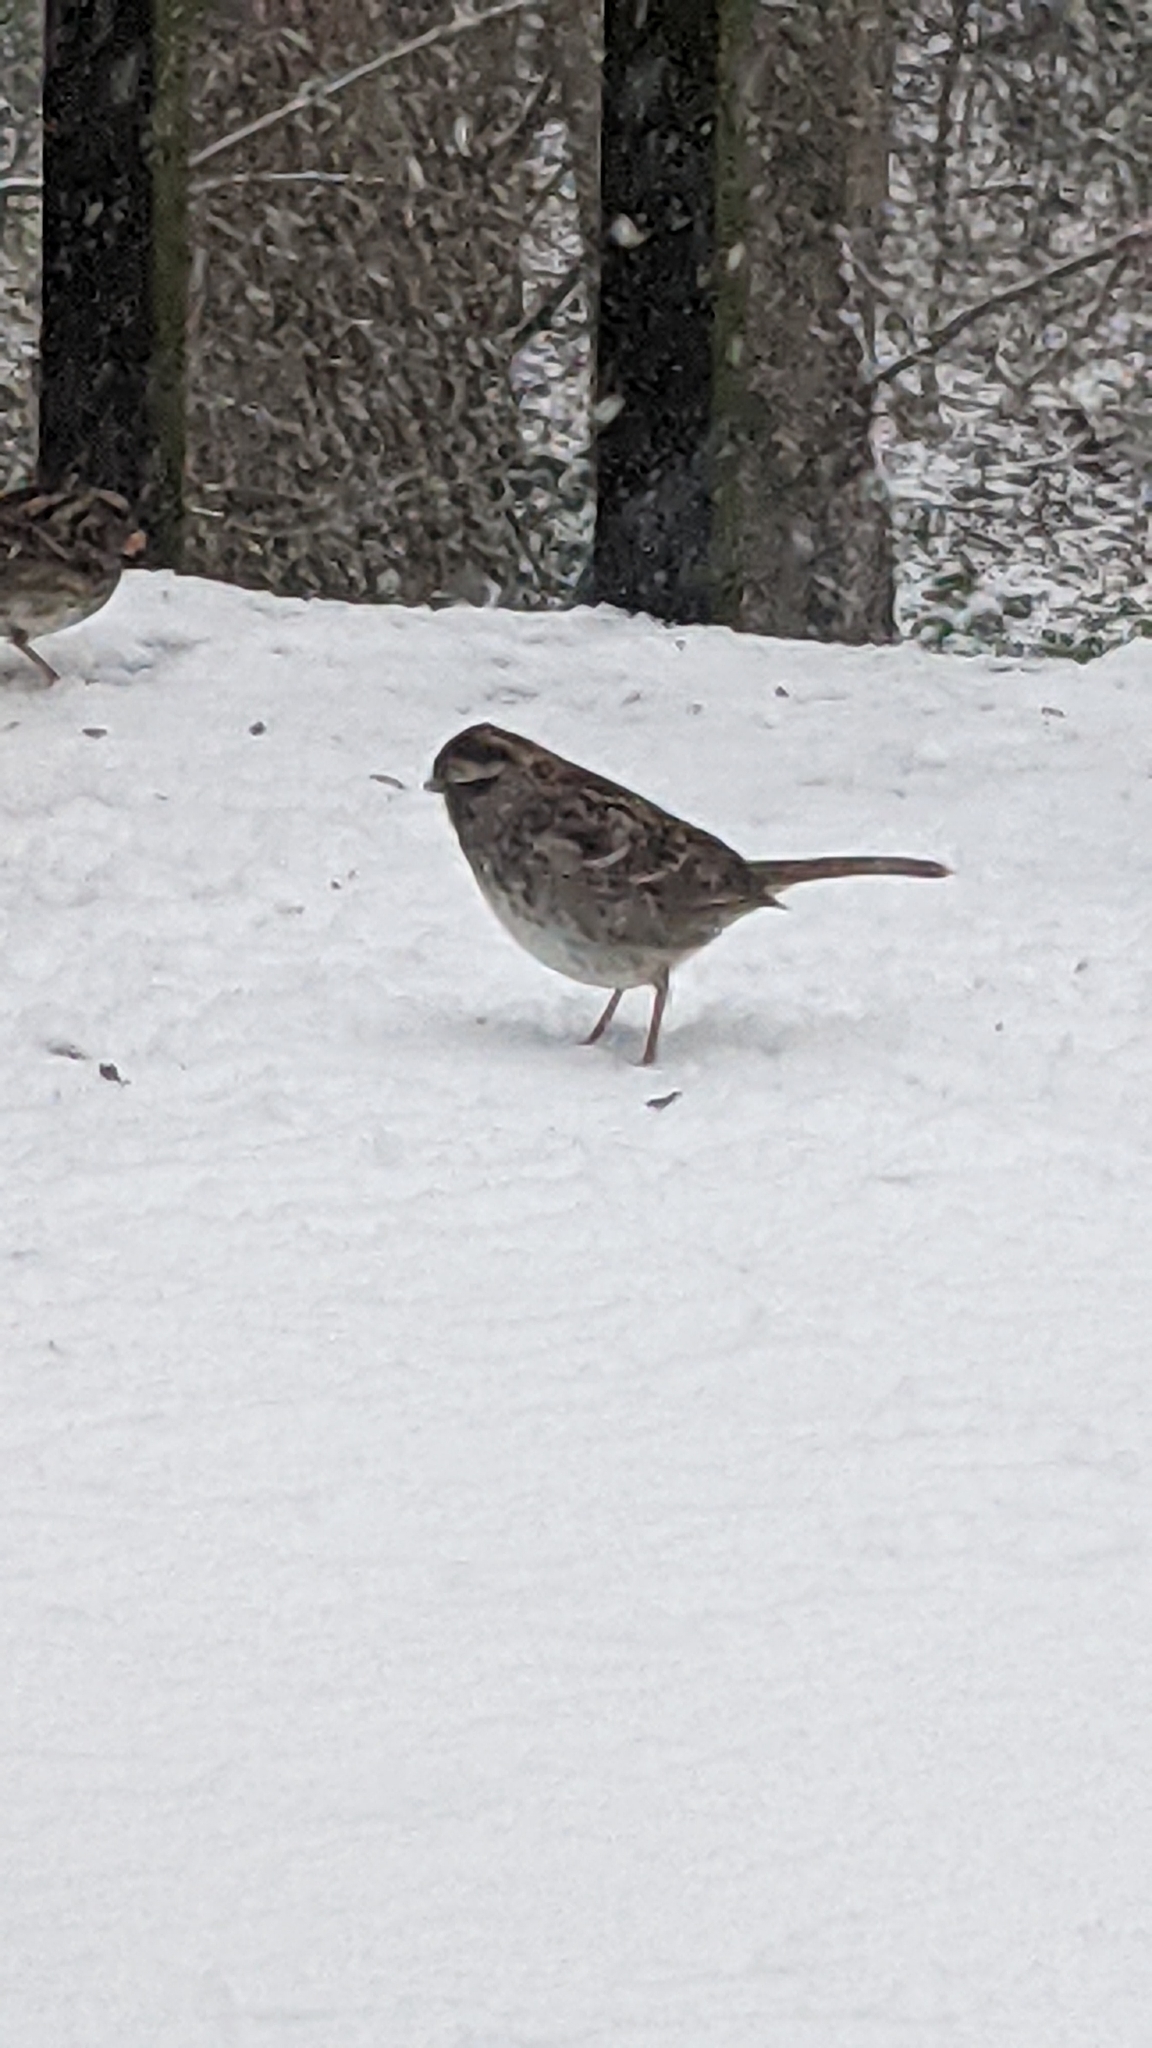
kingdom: Animalia
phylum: Chordata
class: Aves
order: Passeriformes
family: Passerellidae
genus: Zonotrichia
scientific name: Zonotrichia albicollis
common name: White-throated sparrow
